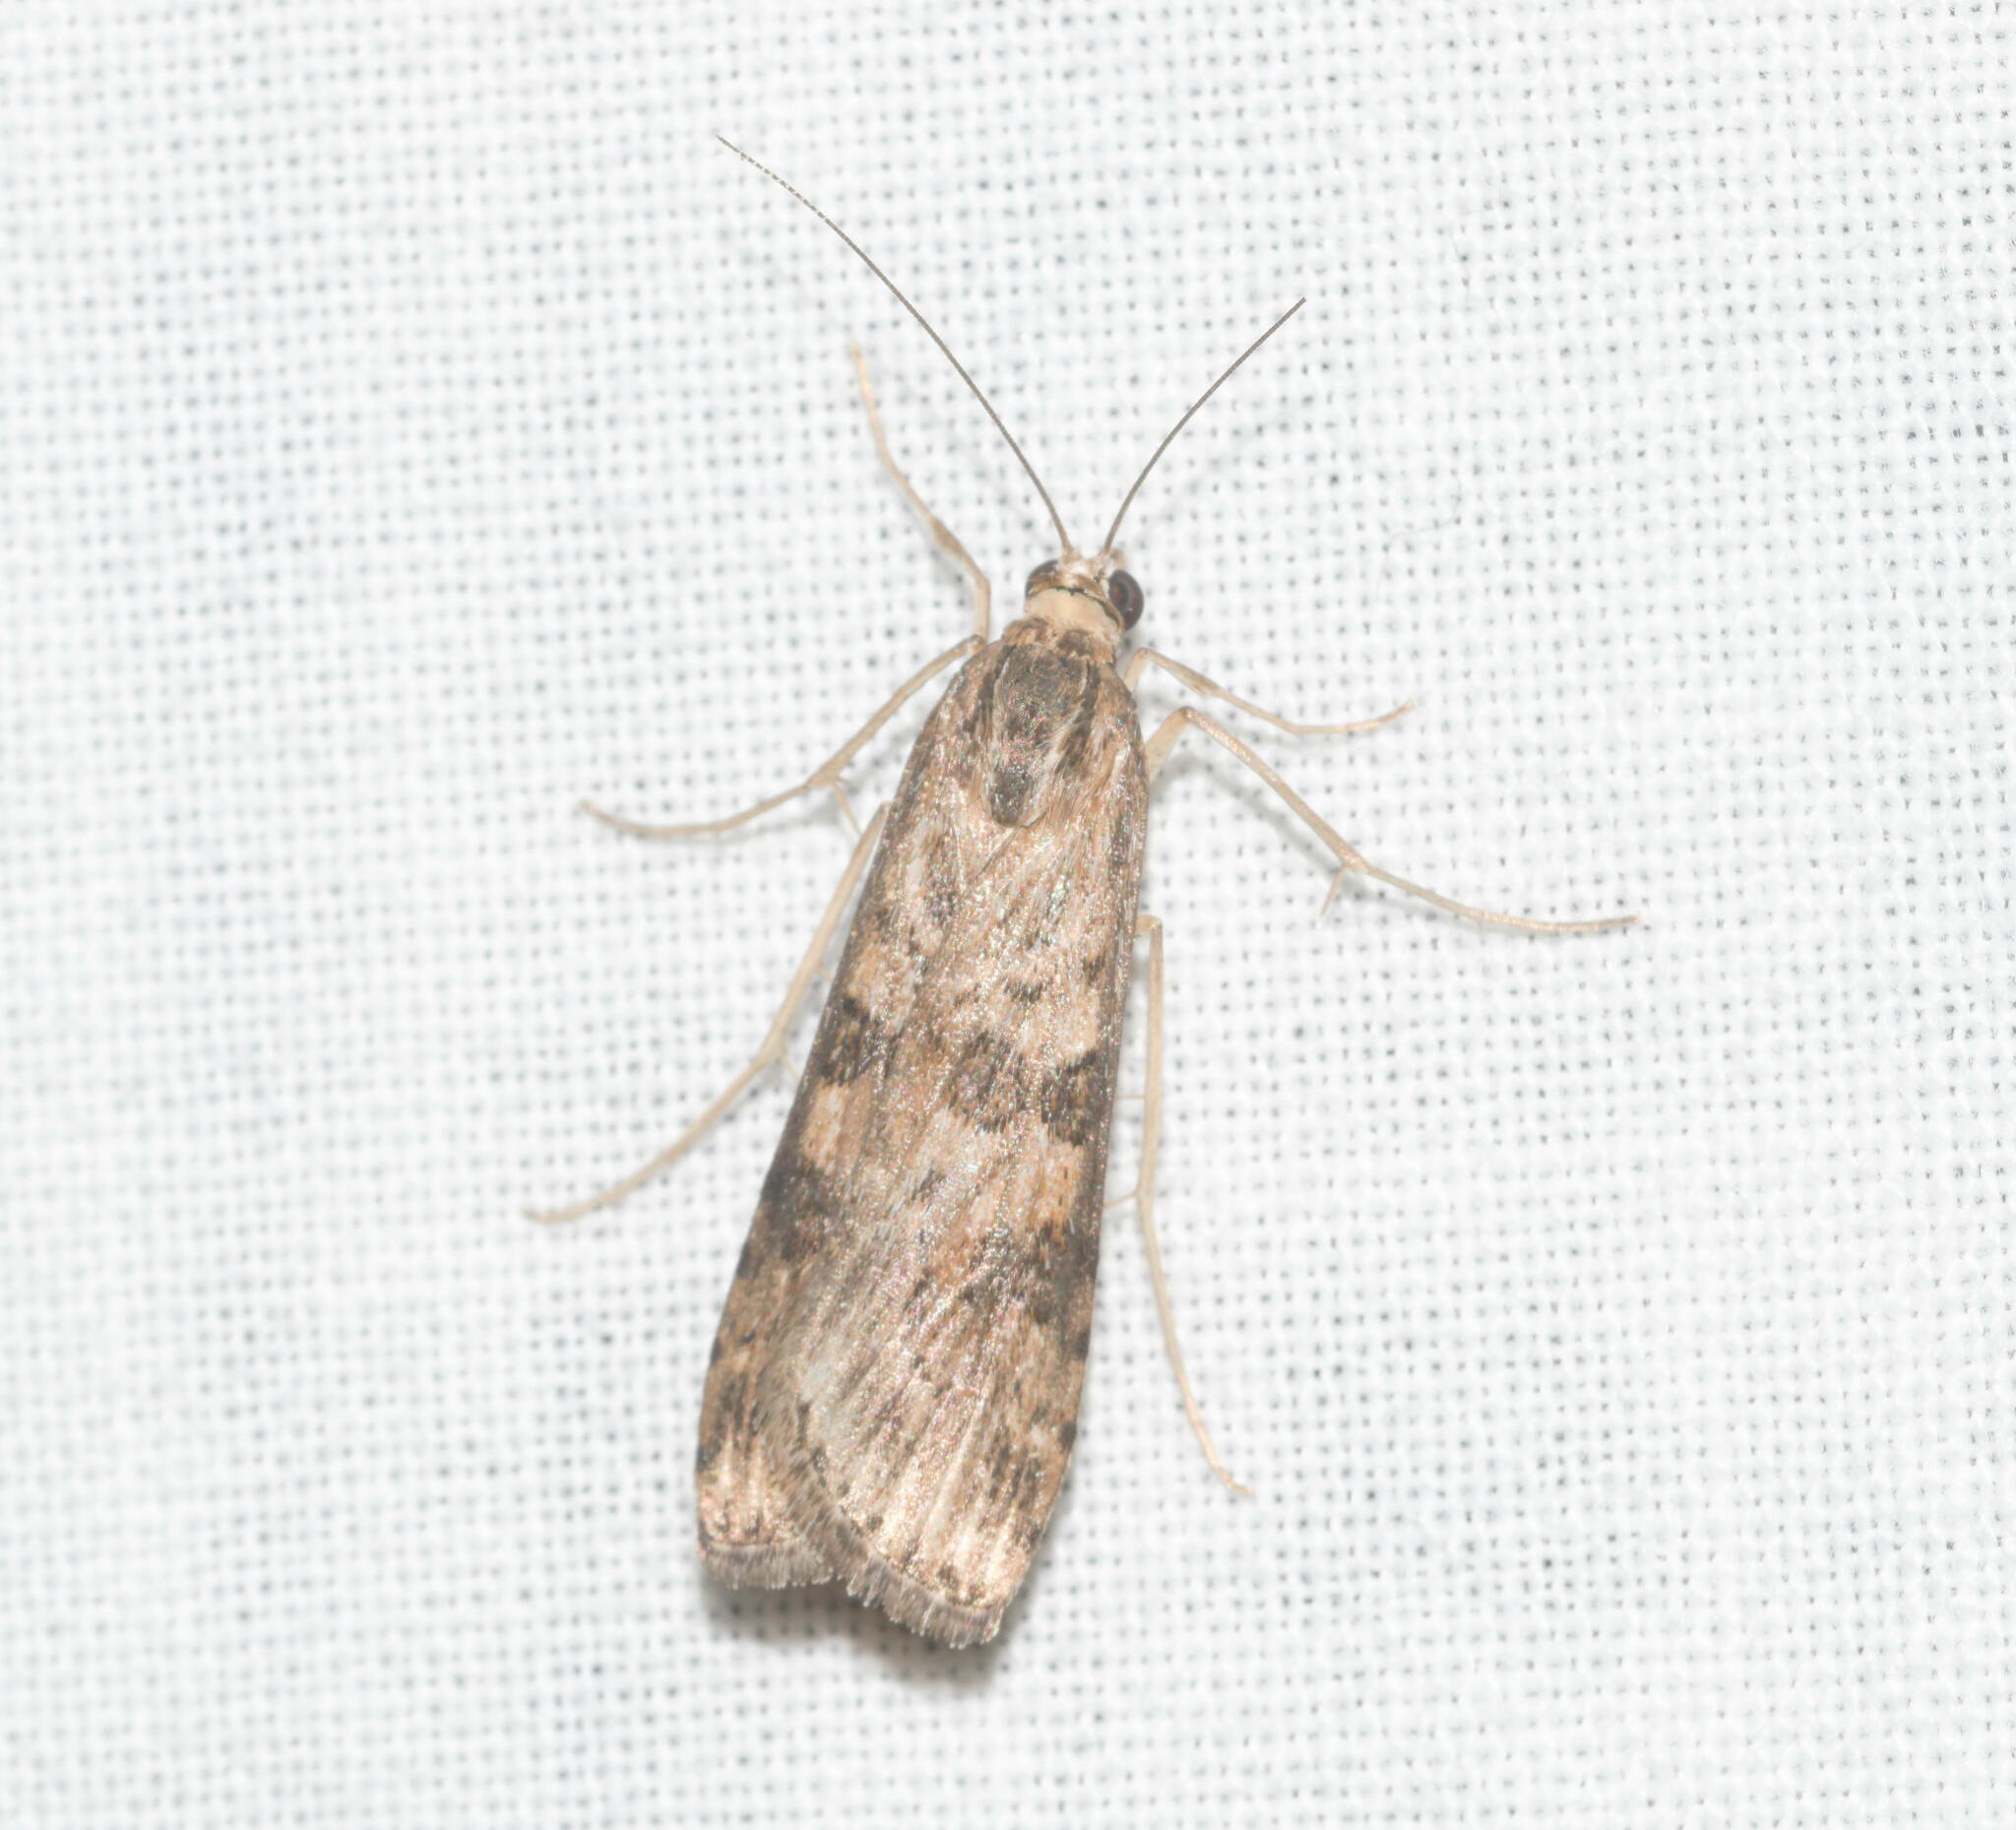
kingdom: Animalia
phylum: Arthropoda
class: Insecta
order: Lepidoptera
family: Crambidae
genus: Nomophila
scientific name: Nomophila noctuella
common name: Rush veneer
